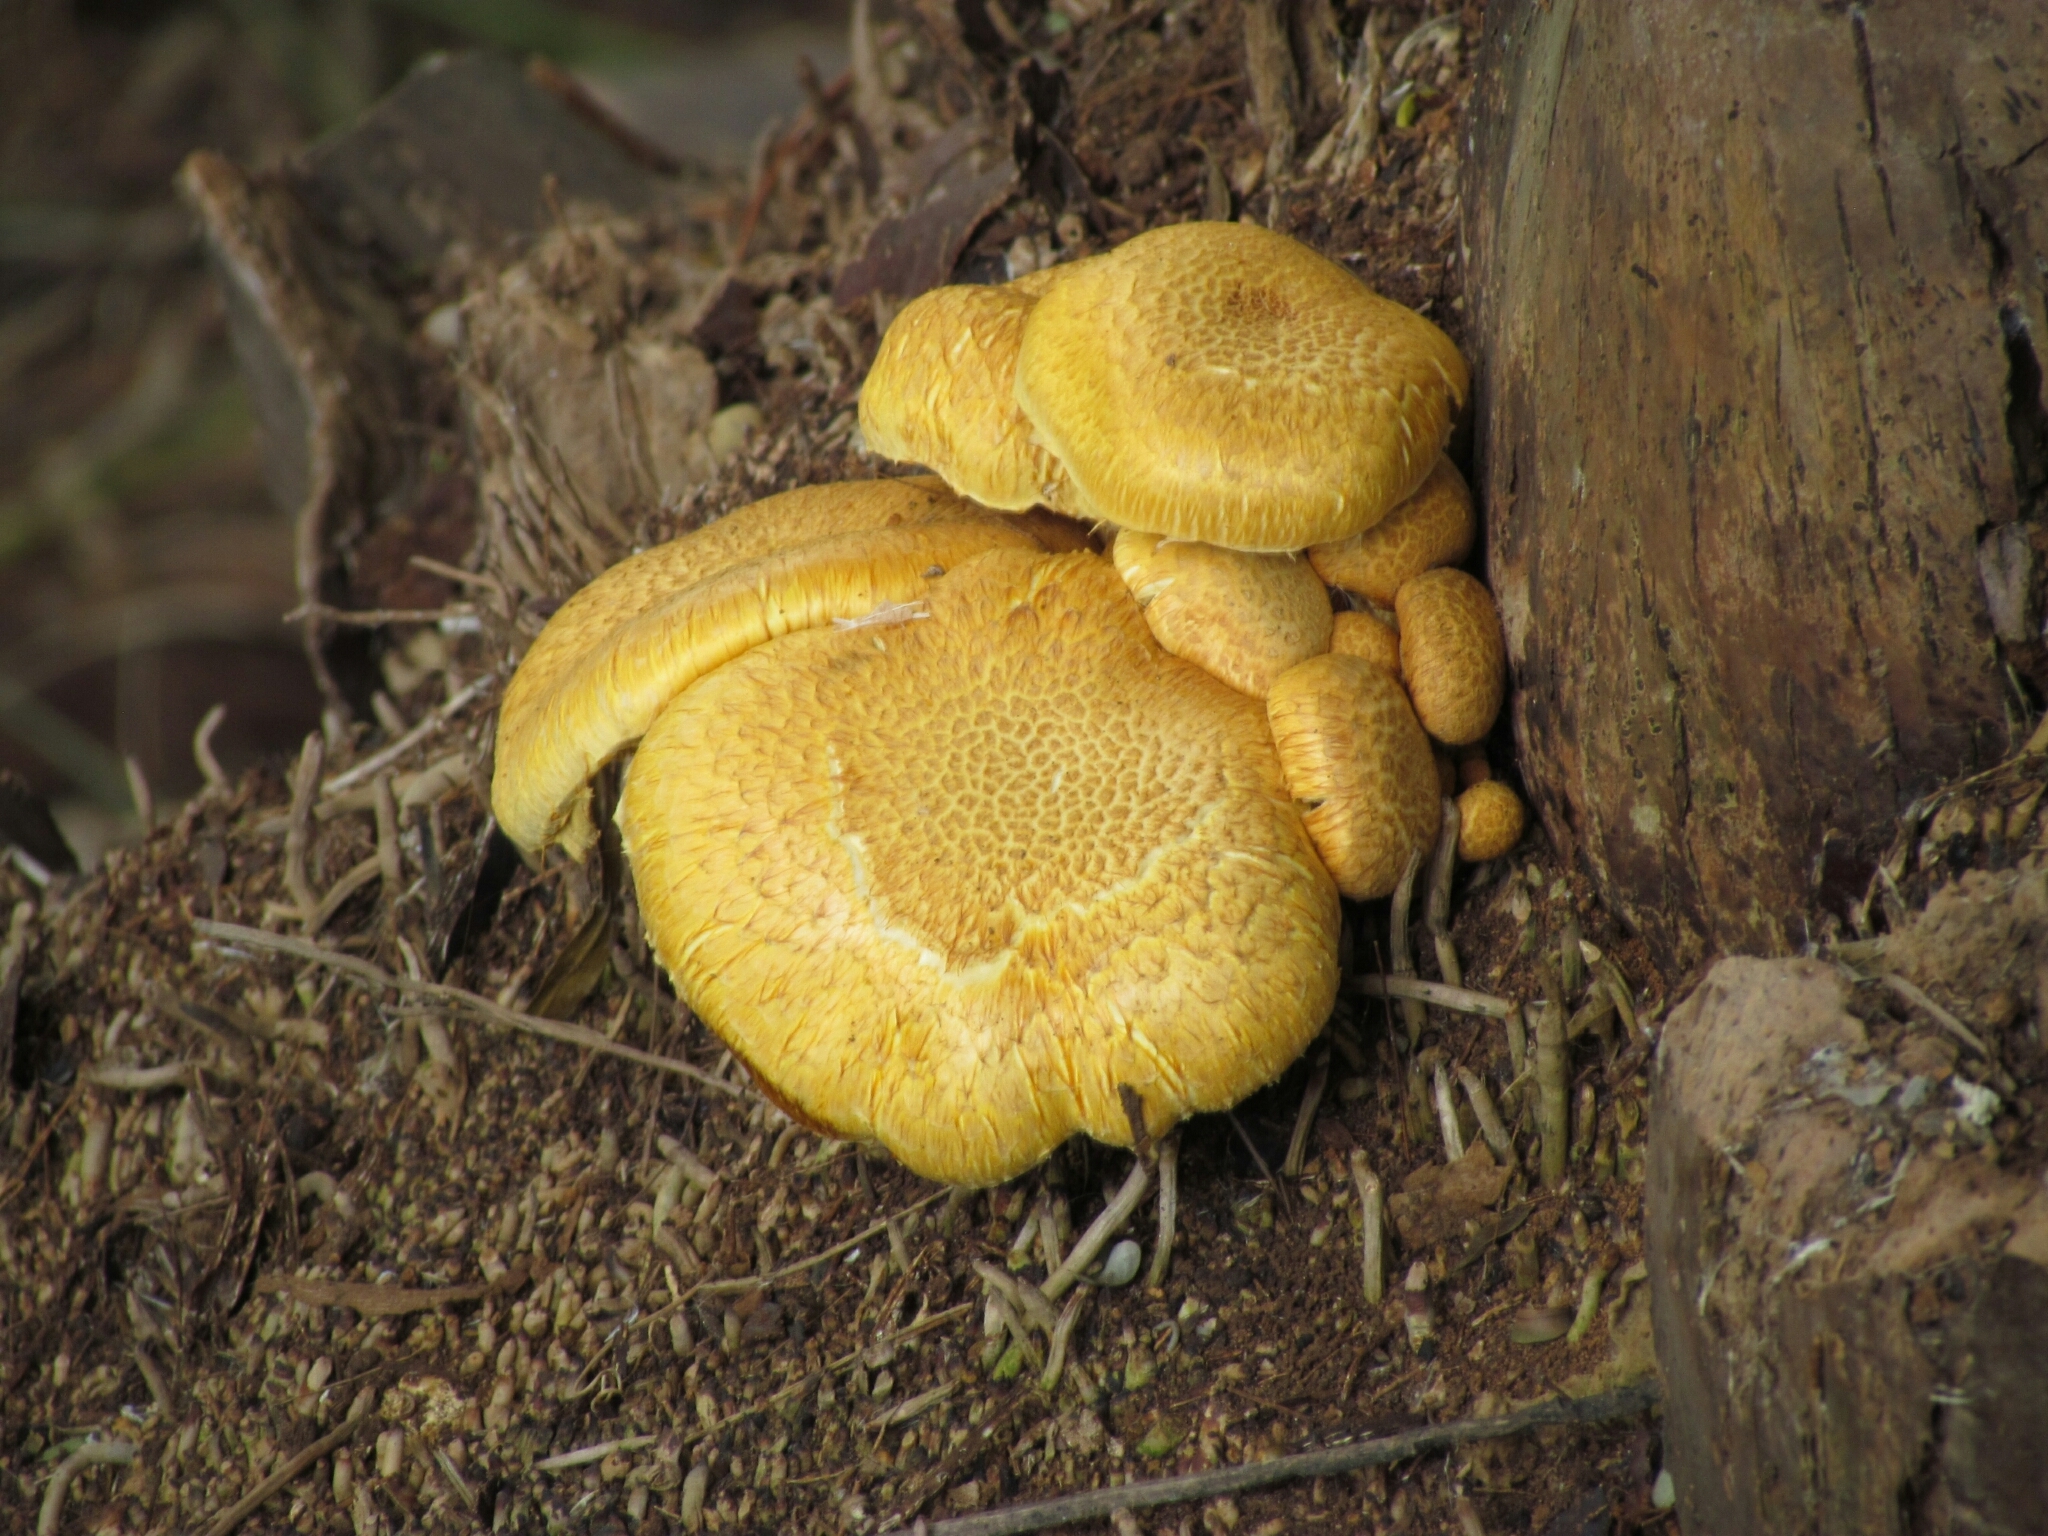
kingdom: Fungi
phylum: Basidiomycota
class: Agaricomycetes
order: Agaricales
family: Hymenogastraceae
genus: Gymnopilus
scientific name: Gymnopilus
